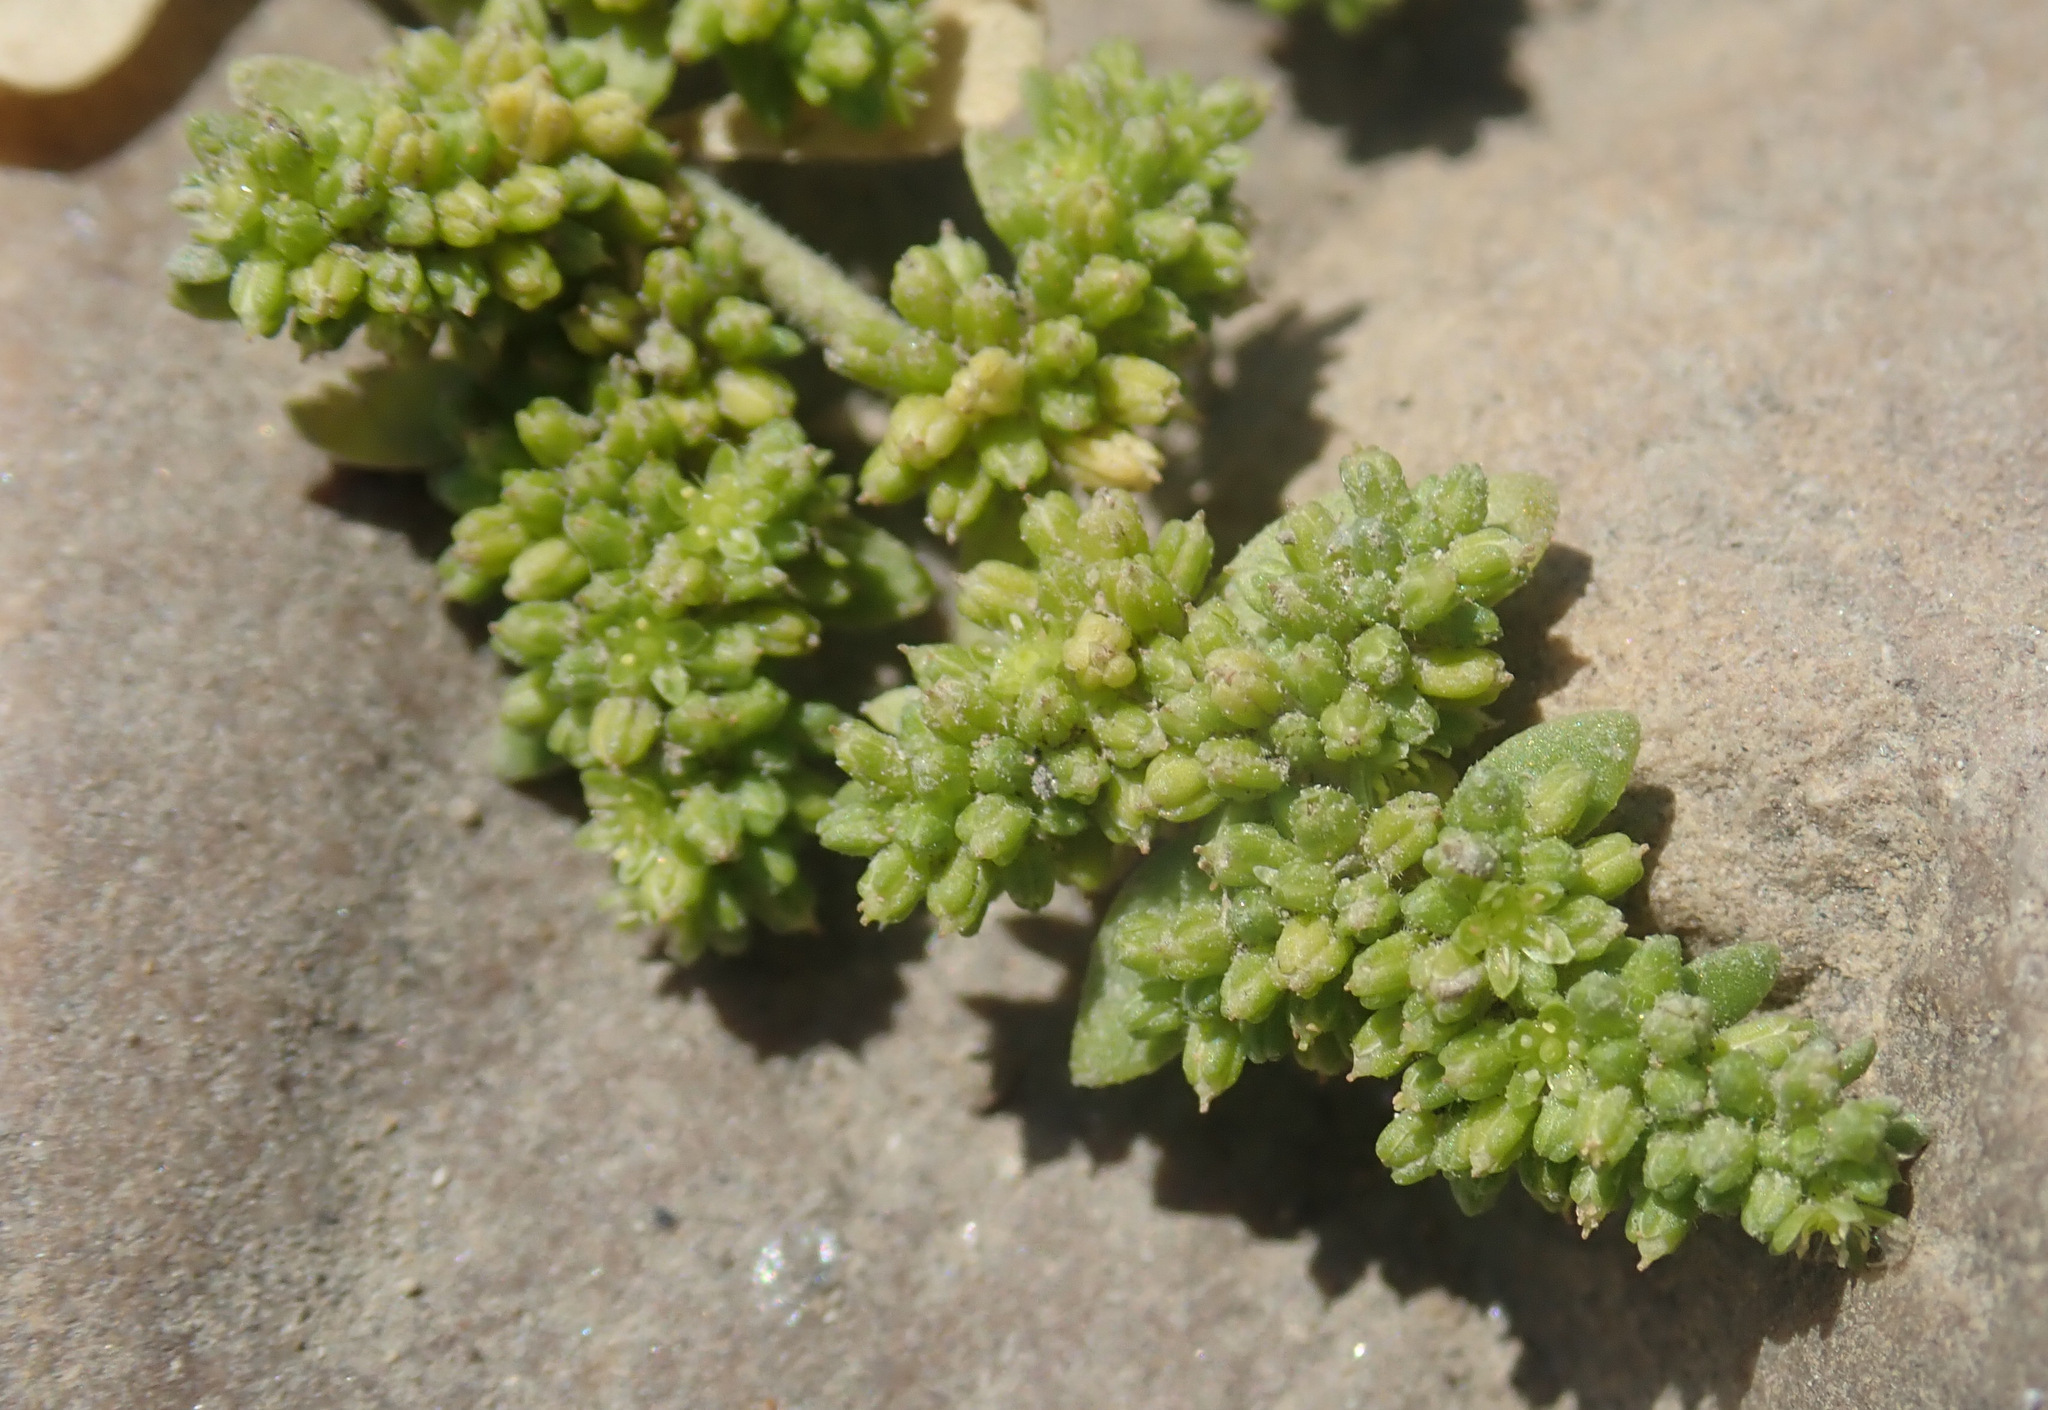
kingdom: Plantae
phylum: Tracheophyta
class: Magnoliopsida
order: Caryophyllales
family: Caryophyllaceae
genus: Herniaria
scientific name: Herniaria glabra
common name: Smooth rupturewort
